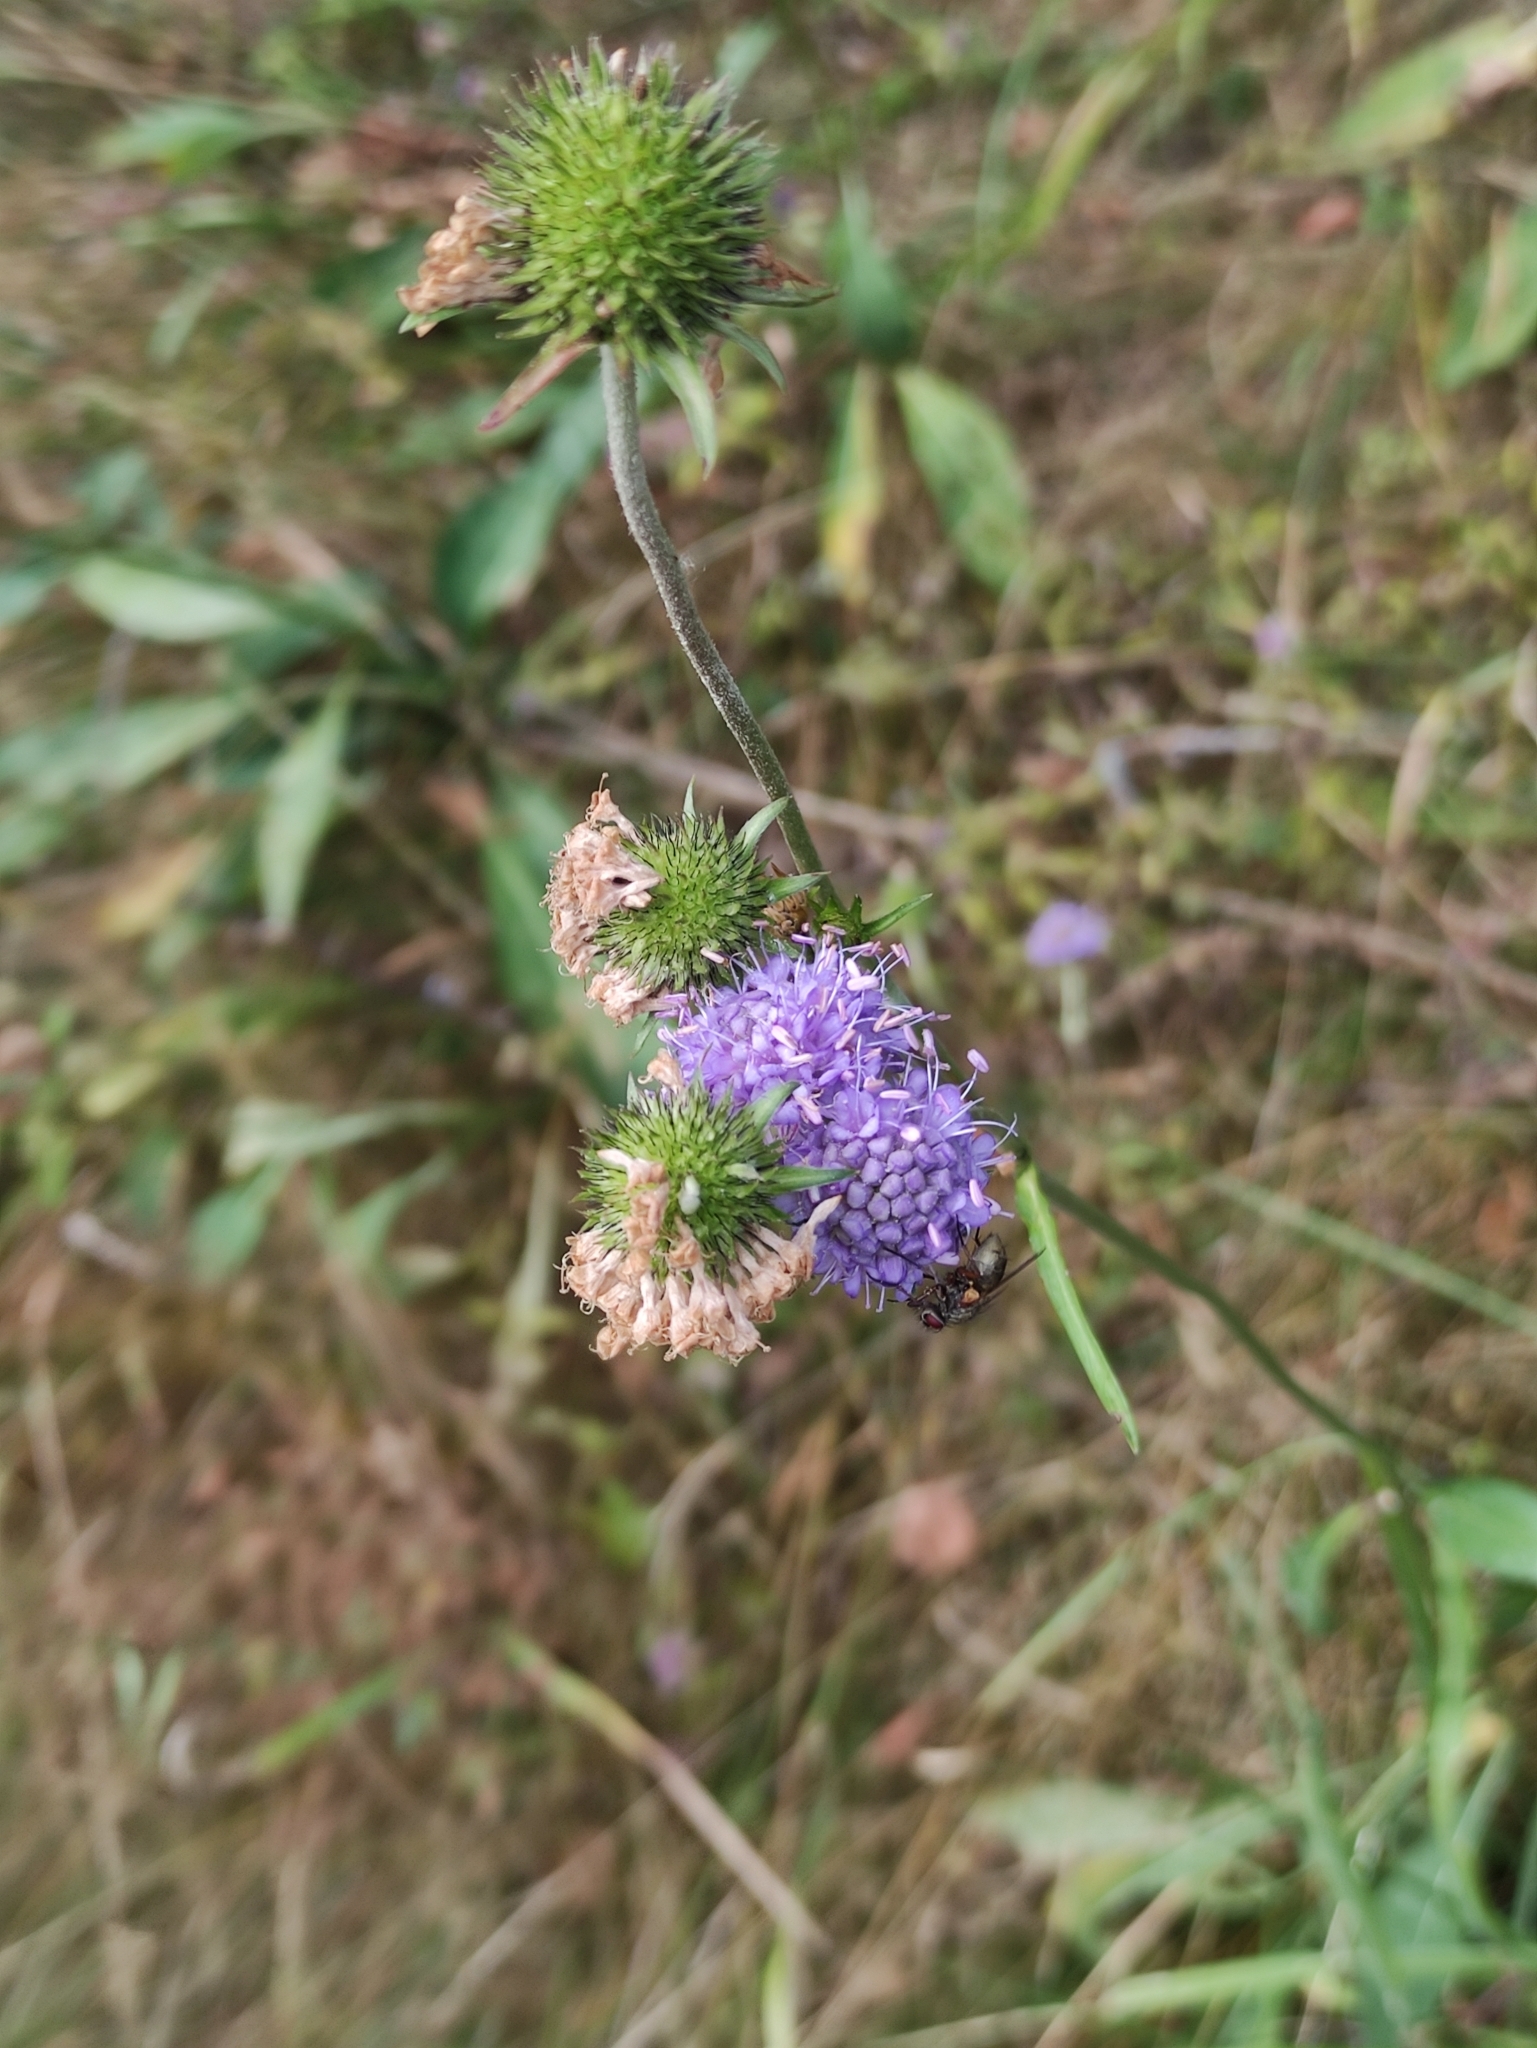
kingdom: Plantae
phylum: Tracheophyta
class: Magnoliopsida
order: Dipsacales
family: Caprifoliaceae
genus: Succisa
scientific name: Succisa pratensis
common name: Devil's-bit
